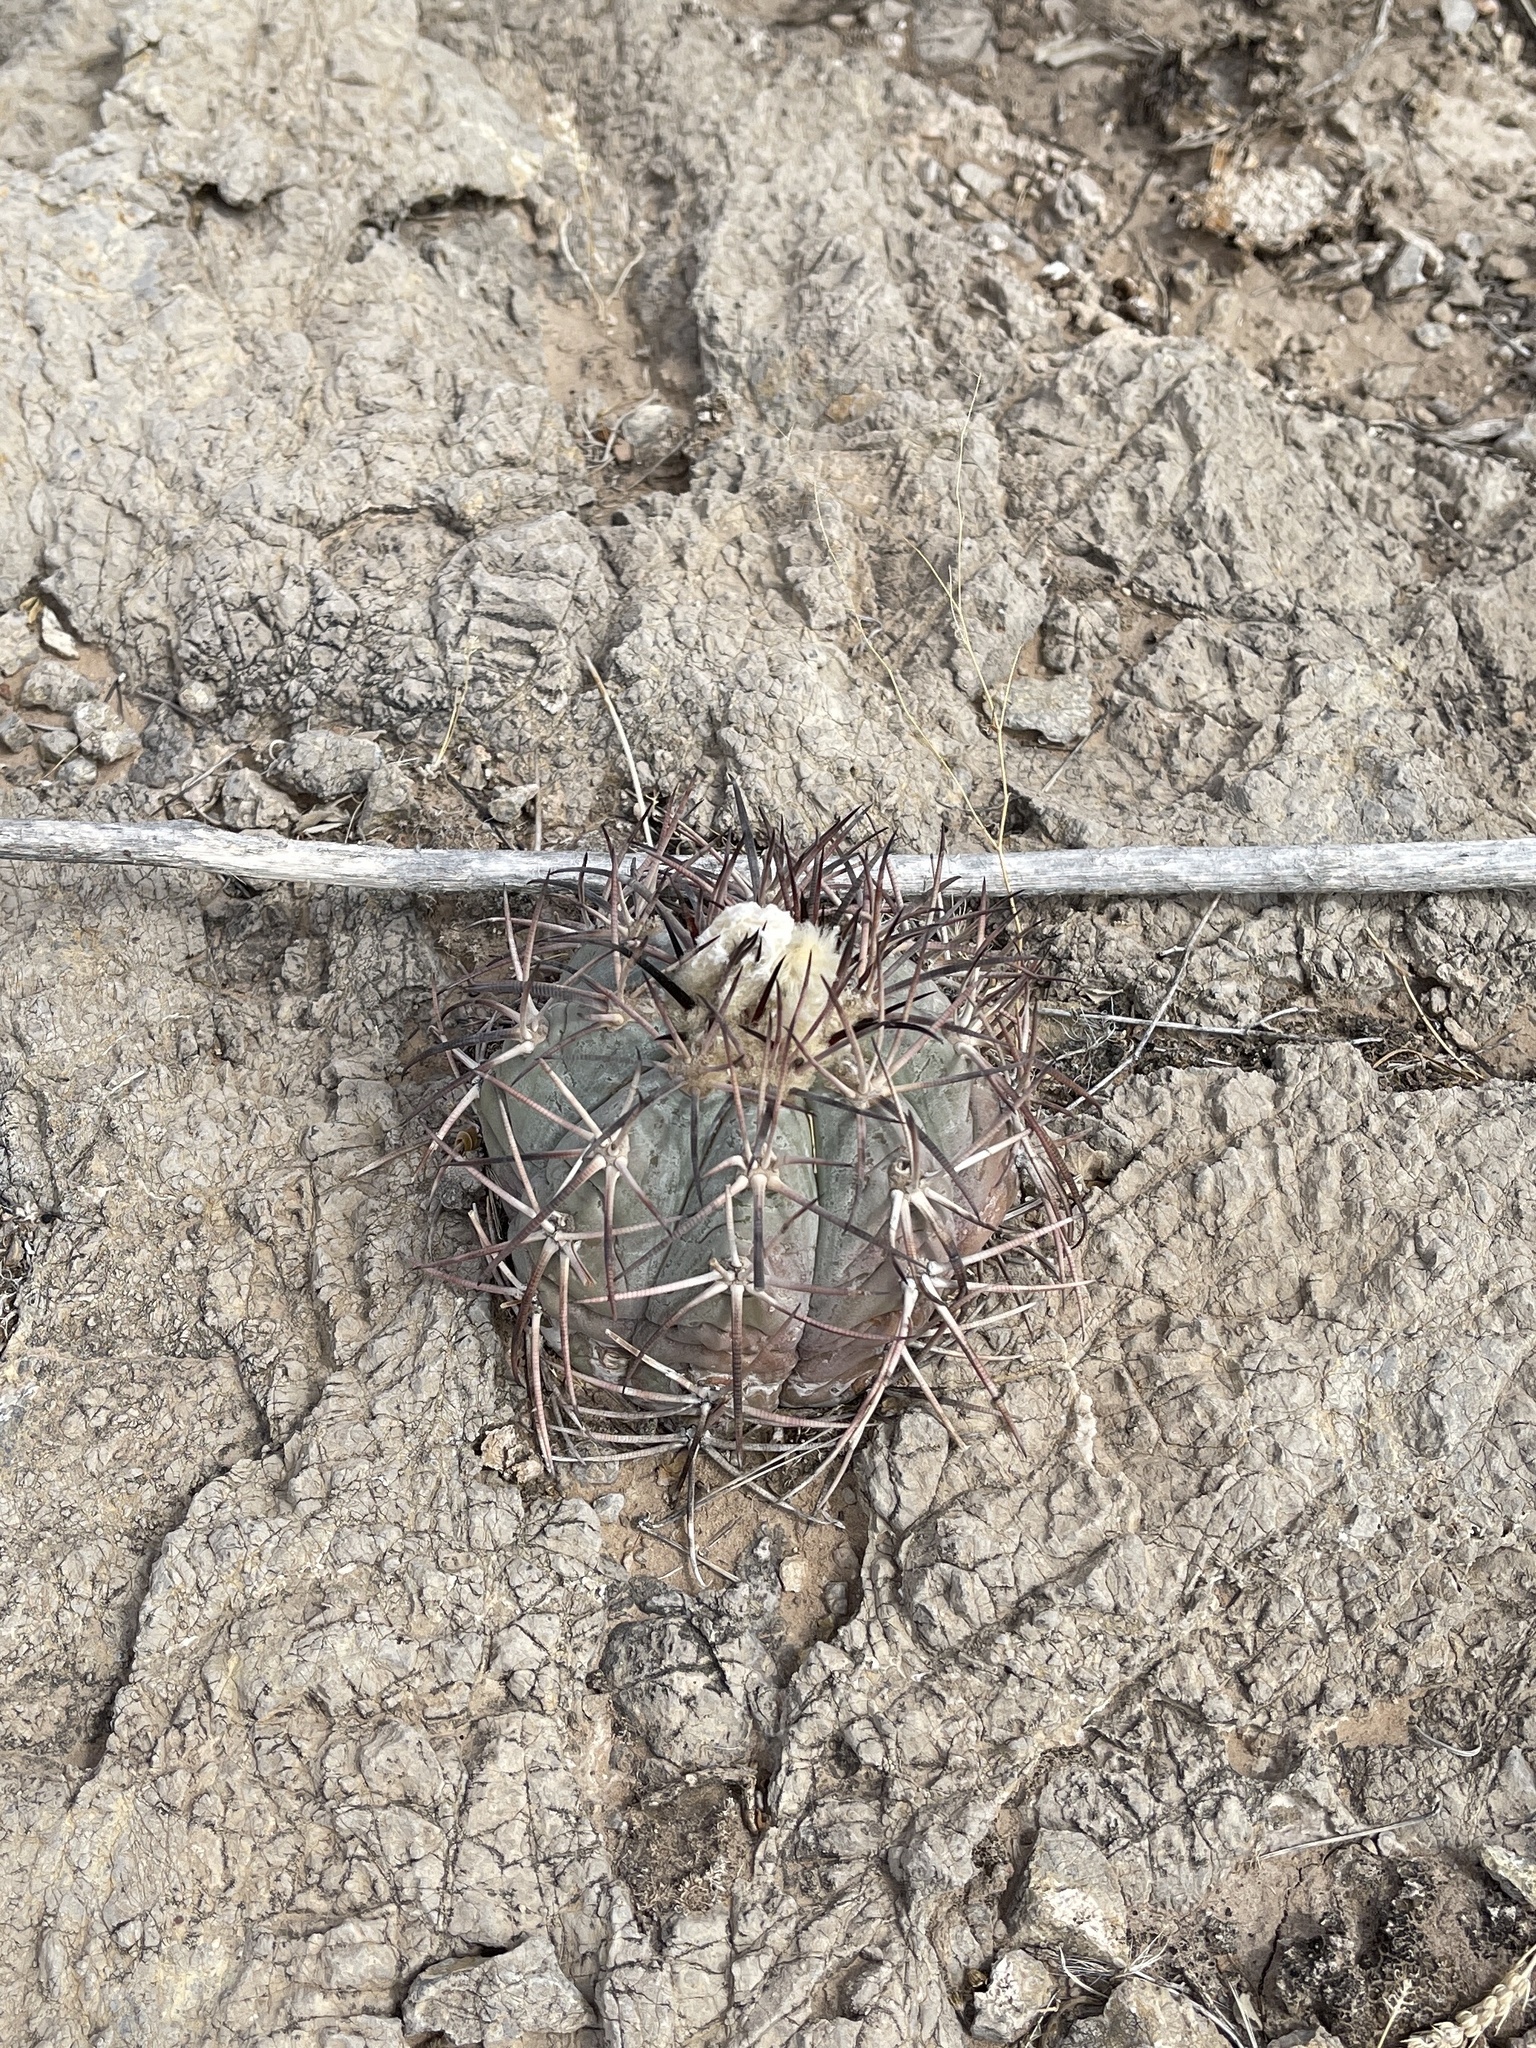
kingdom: Plantae
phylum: Tracheophyta
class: Magnoliopsida
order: Caryophyllales
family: Cactaceae
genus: Echinocactus
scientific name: Echinocactus horizonthalonius
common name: Devilshead
